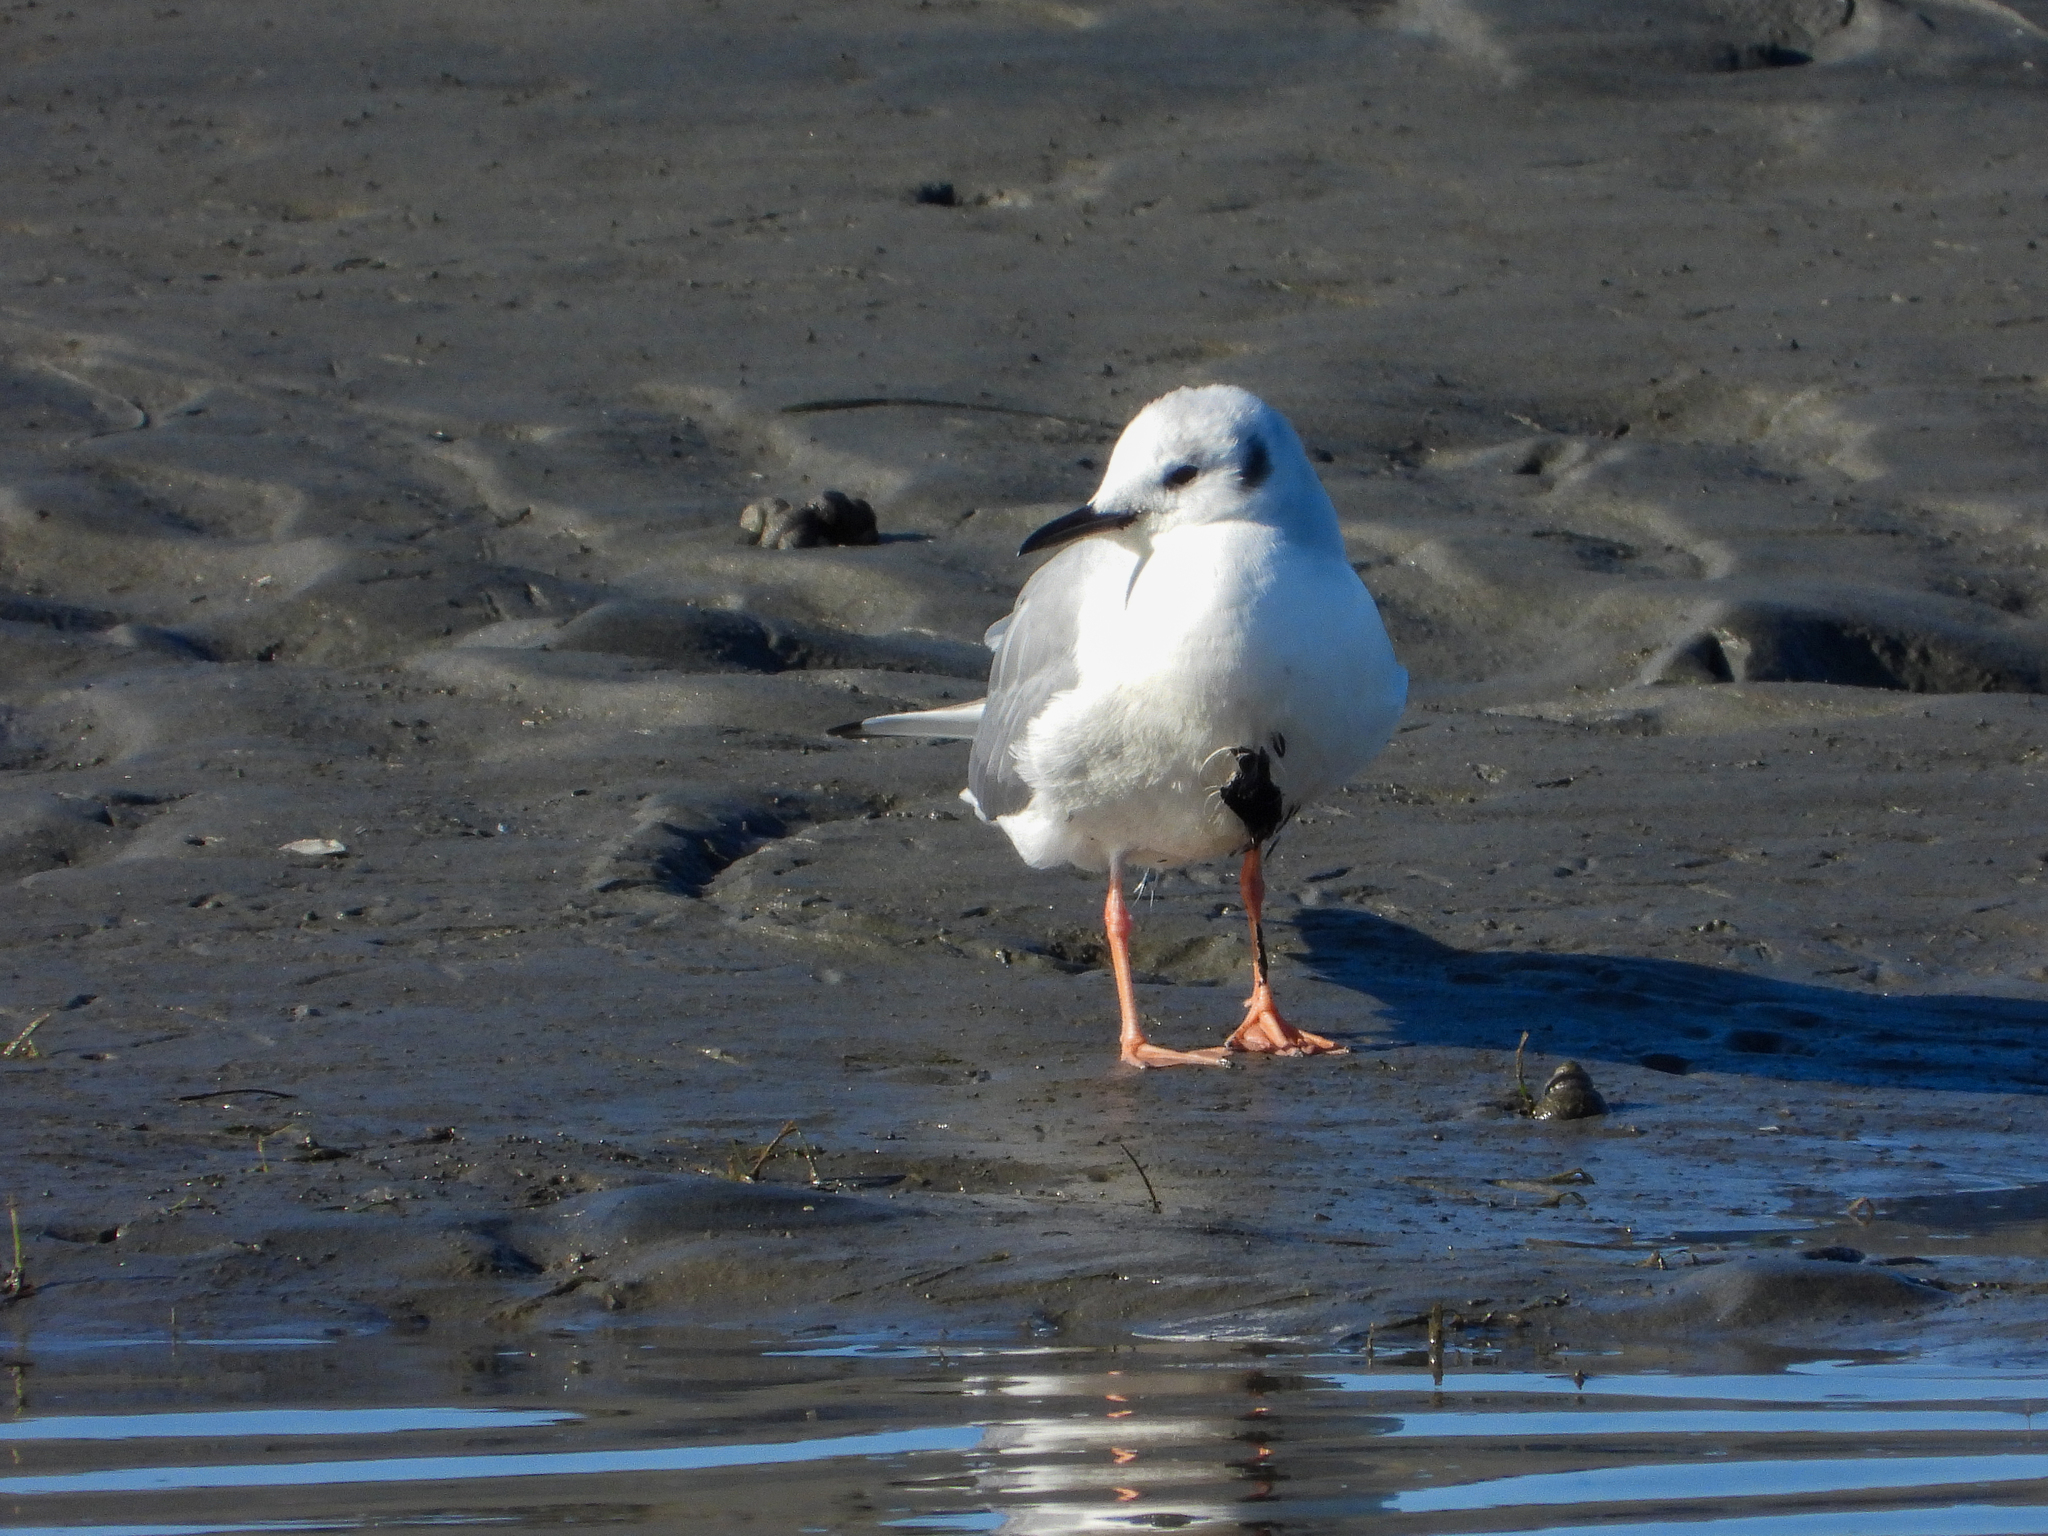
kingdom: Animalia
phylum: Chordata
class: Aves
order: Charadriiformes
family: Laridae
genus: Chroicocephalus
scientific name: Chroicocephalus philadelphia
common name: Bonaparte's gull
